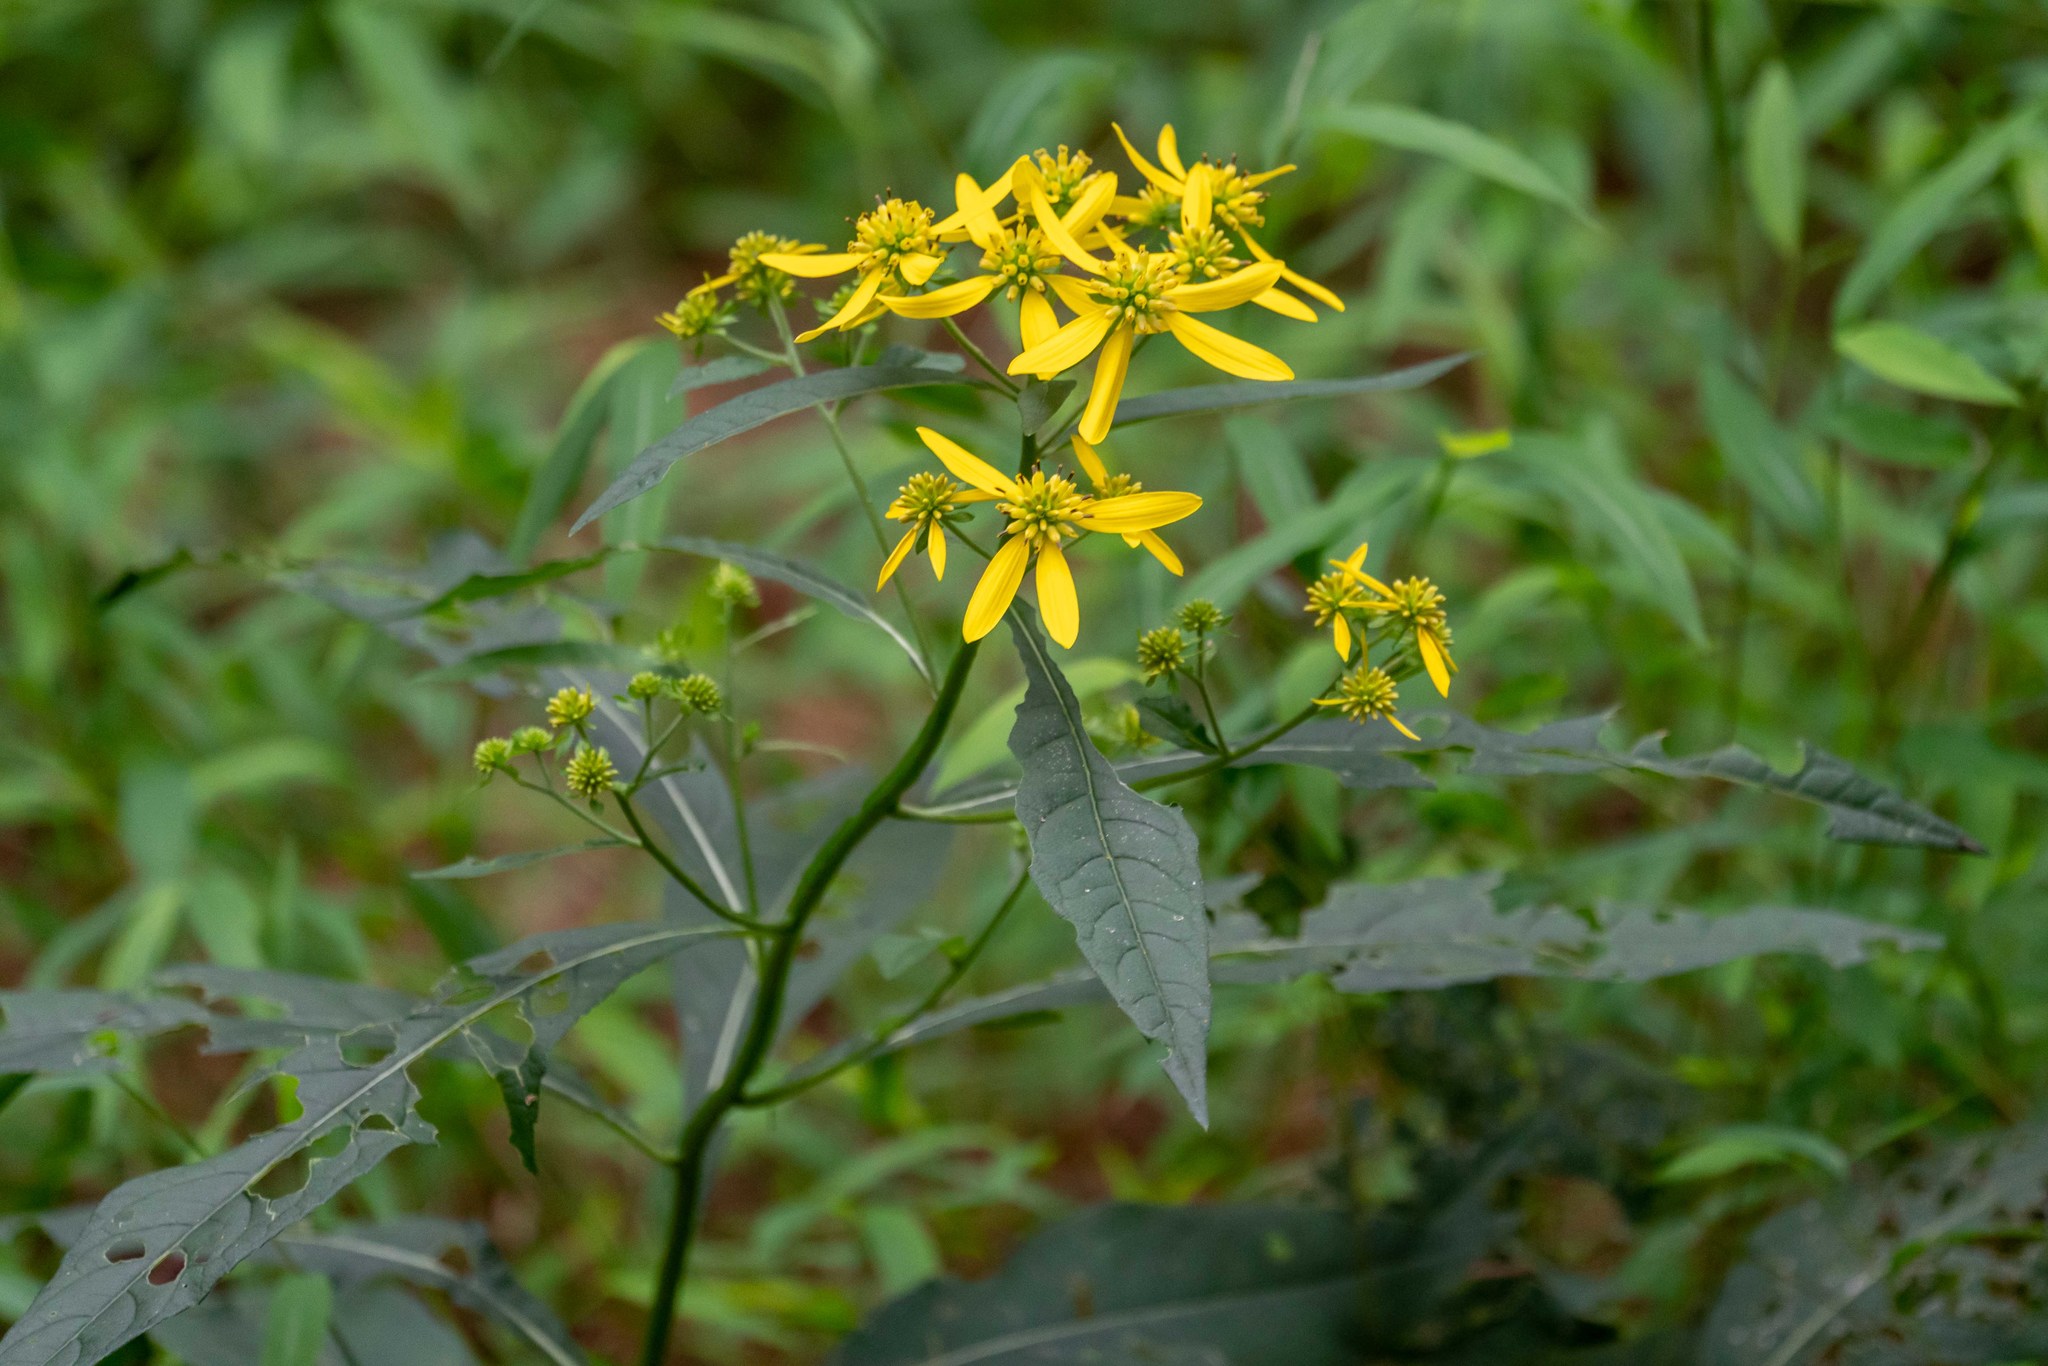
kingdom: Plantae
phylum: Tracheophyta
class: Magnoliopsida
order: Asterales
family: Asteraceae
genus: Verbesina
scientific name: Verbesina alternifolia
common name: Wingstem
